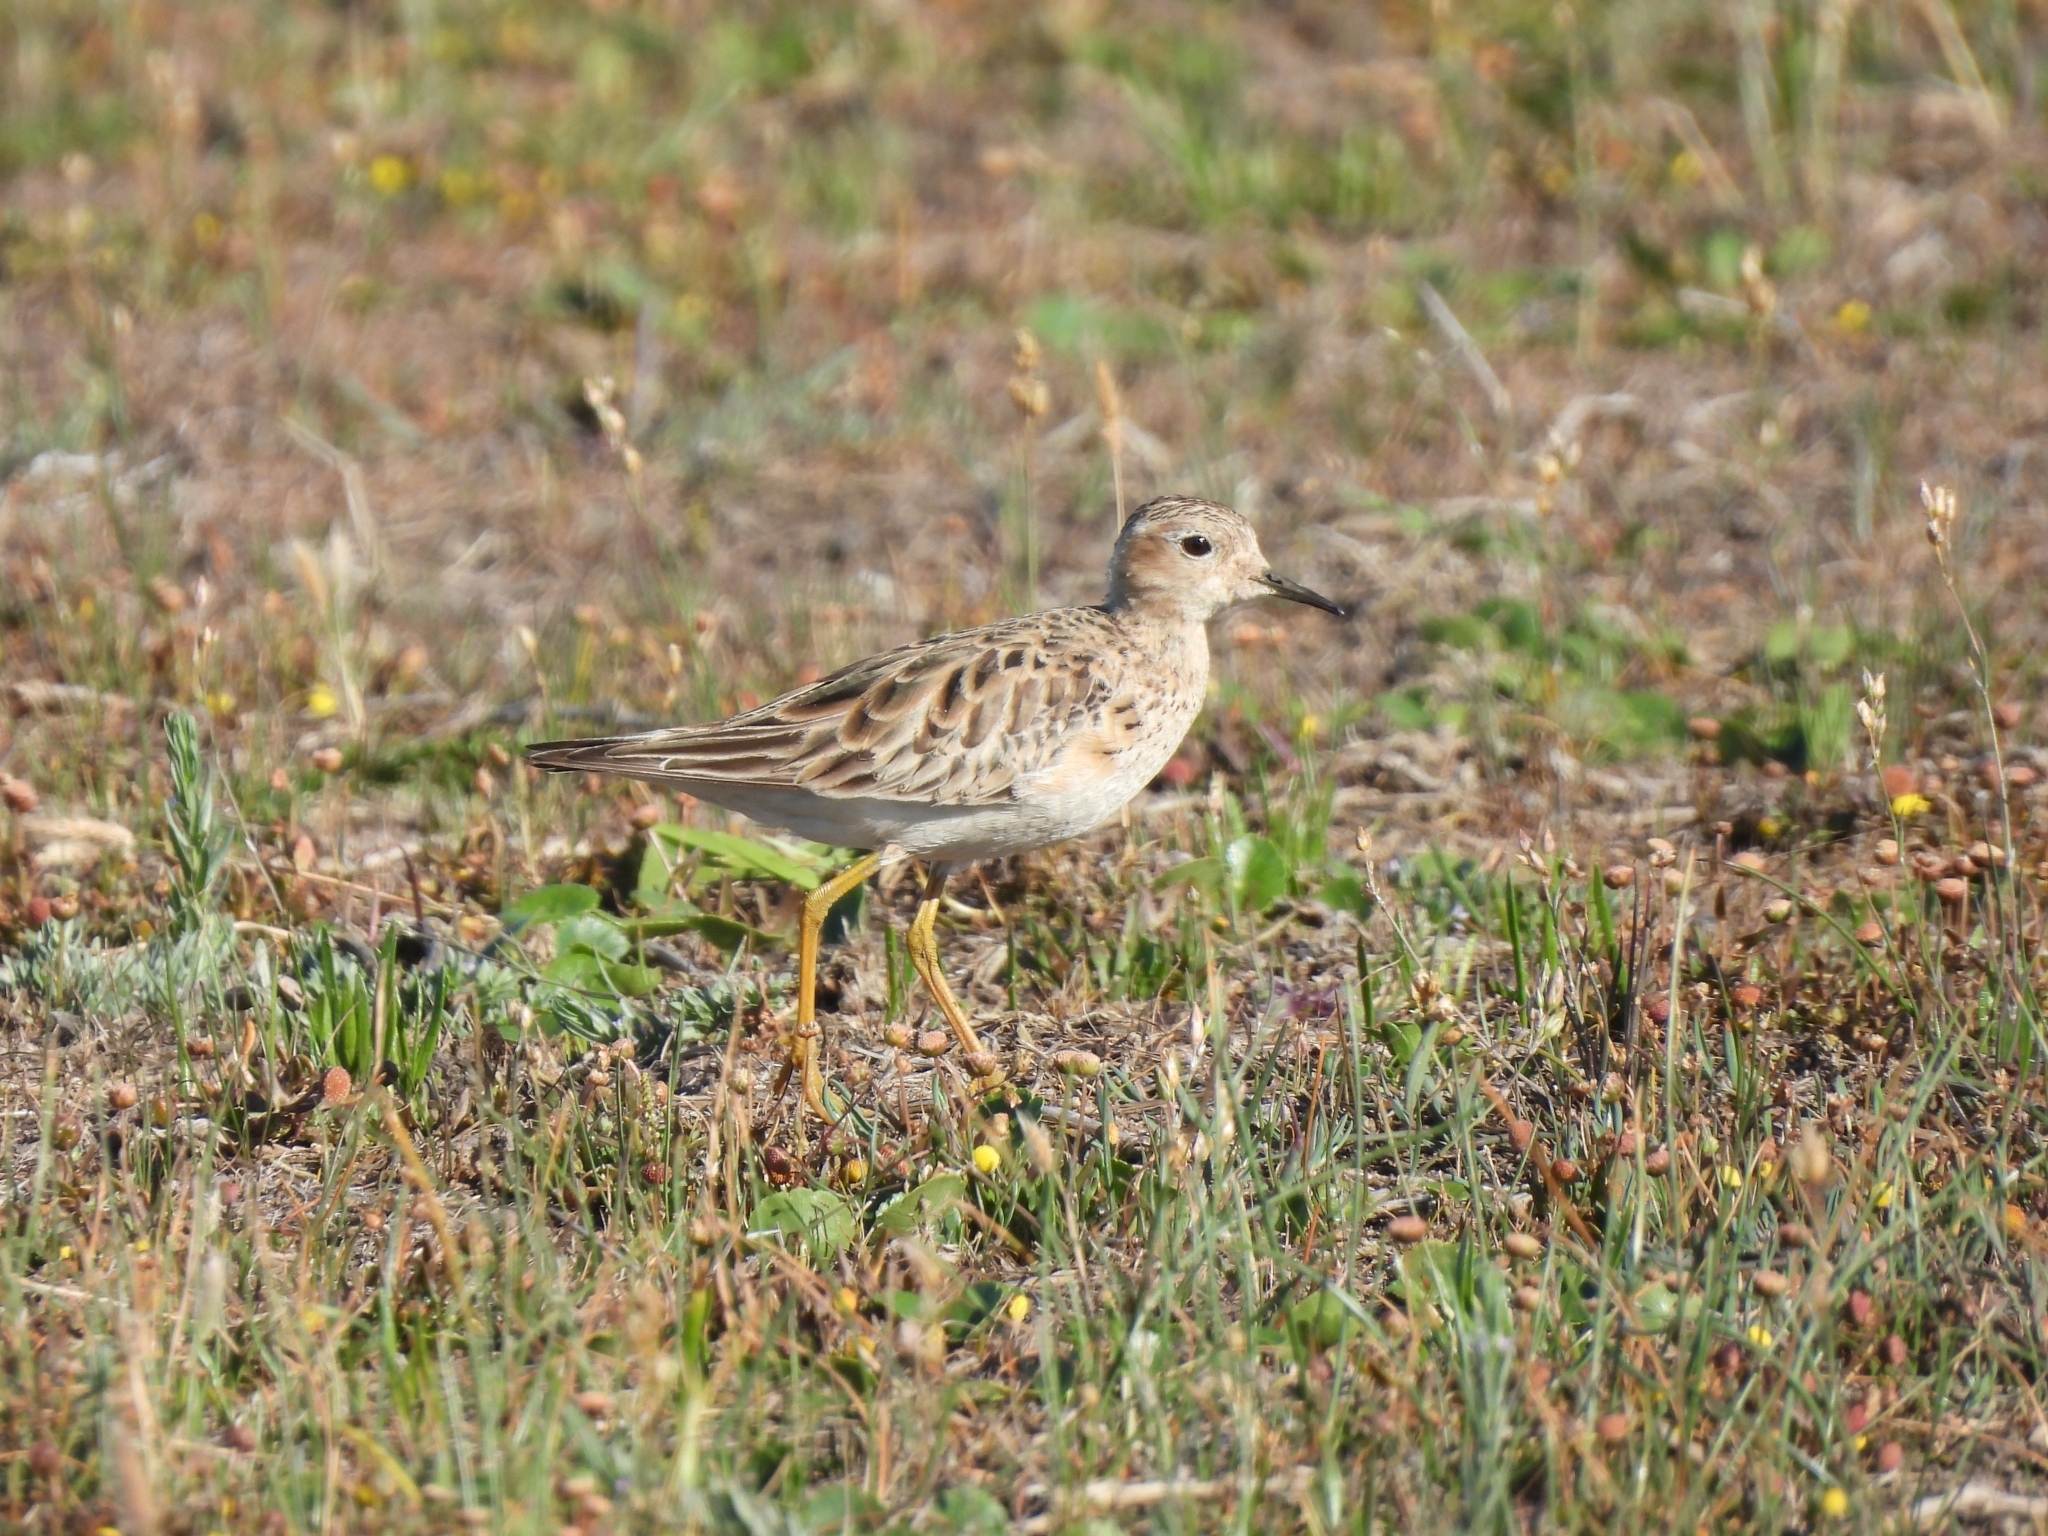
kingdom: Animalia
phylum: Chordata
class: Aves
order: Charadriiformes
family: Scolopacidae
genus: Calidris
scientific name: Calidris subruficollis
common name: Buff-breasted sandpiper
